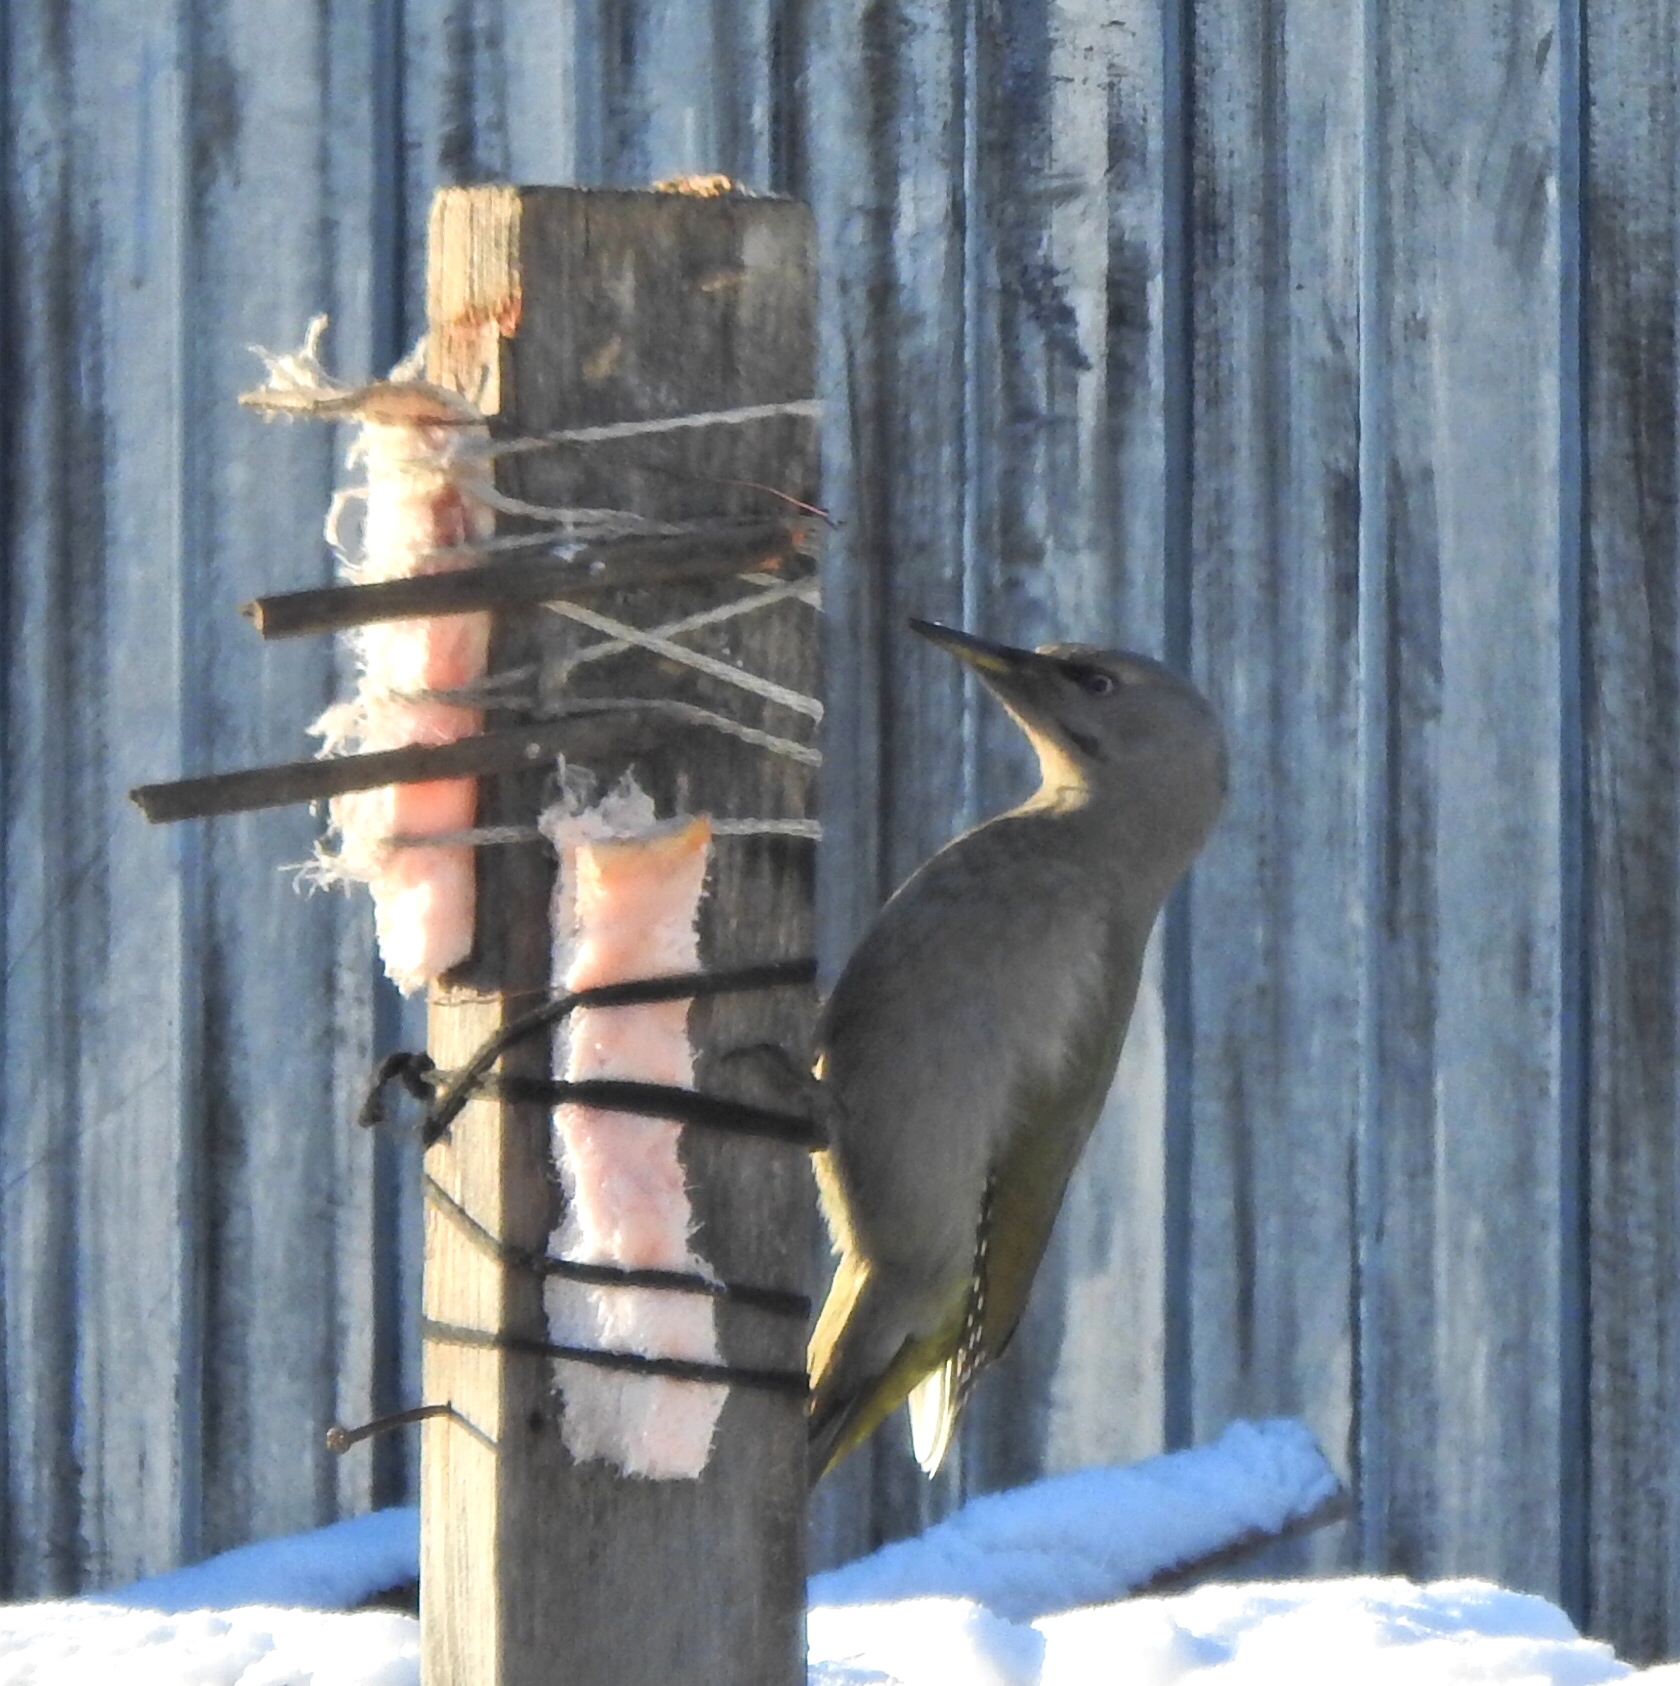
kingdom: Animalia
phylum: Chordata
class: Aves
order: Piciformes
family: Picidae
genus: Picus
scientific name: Picus canus
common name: Grey-headed woodpecker
